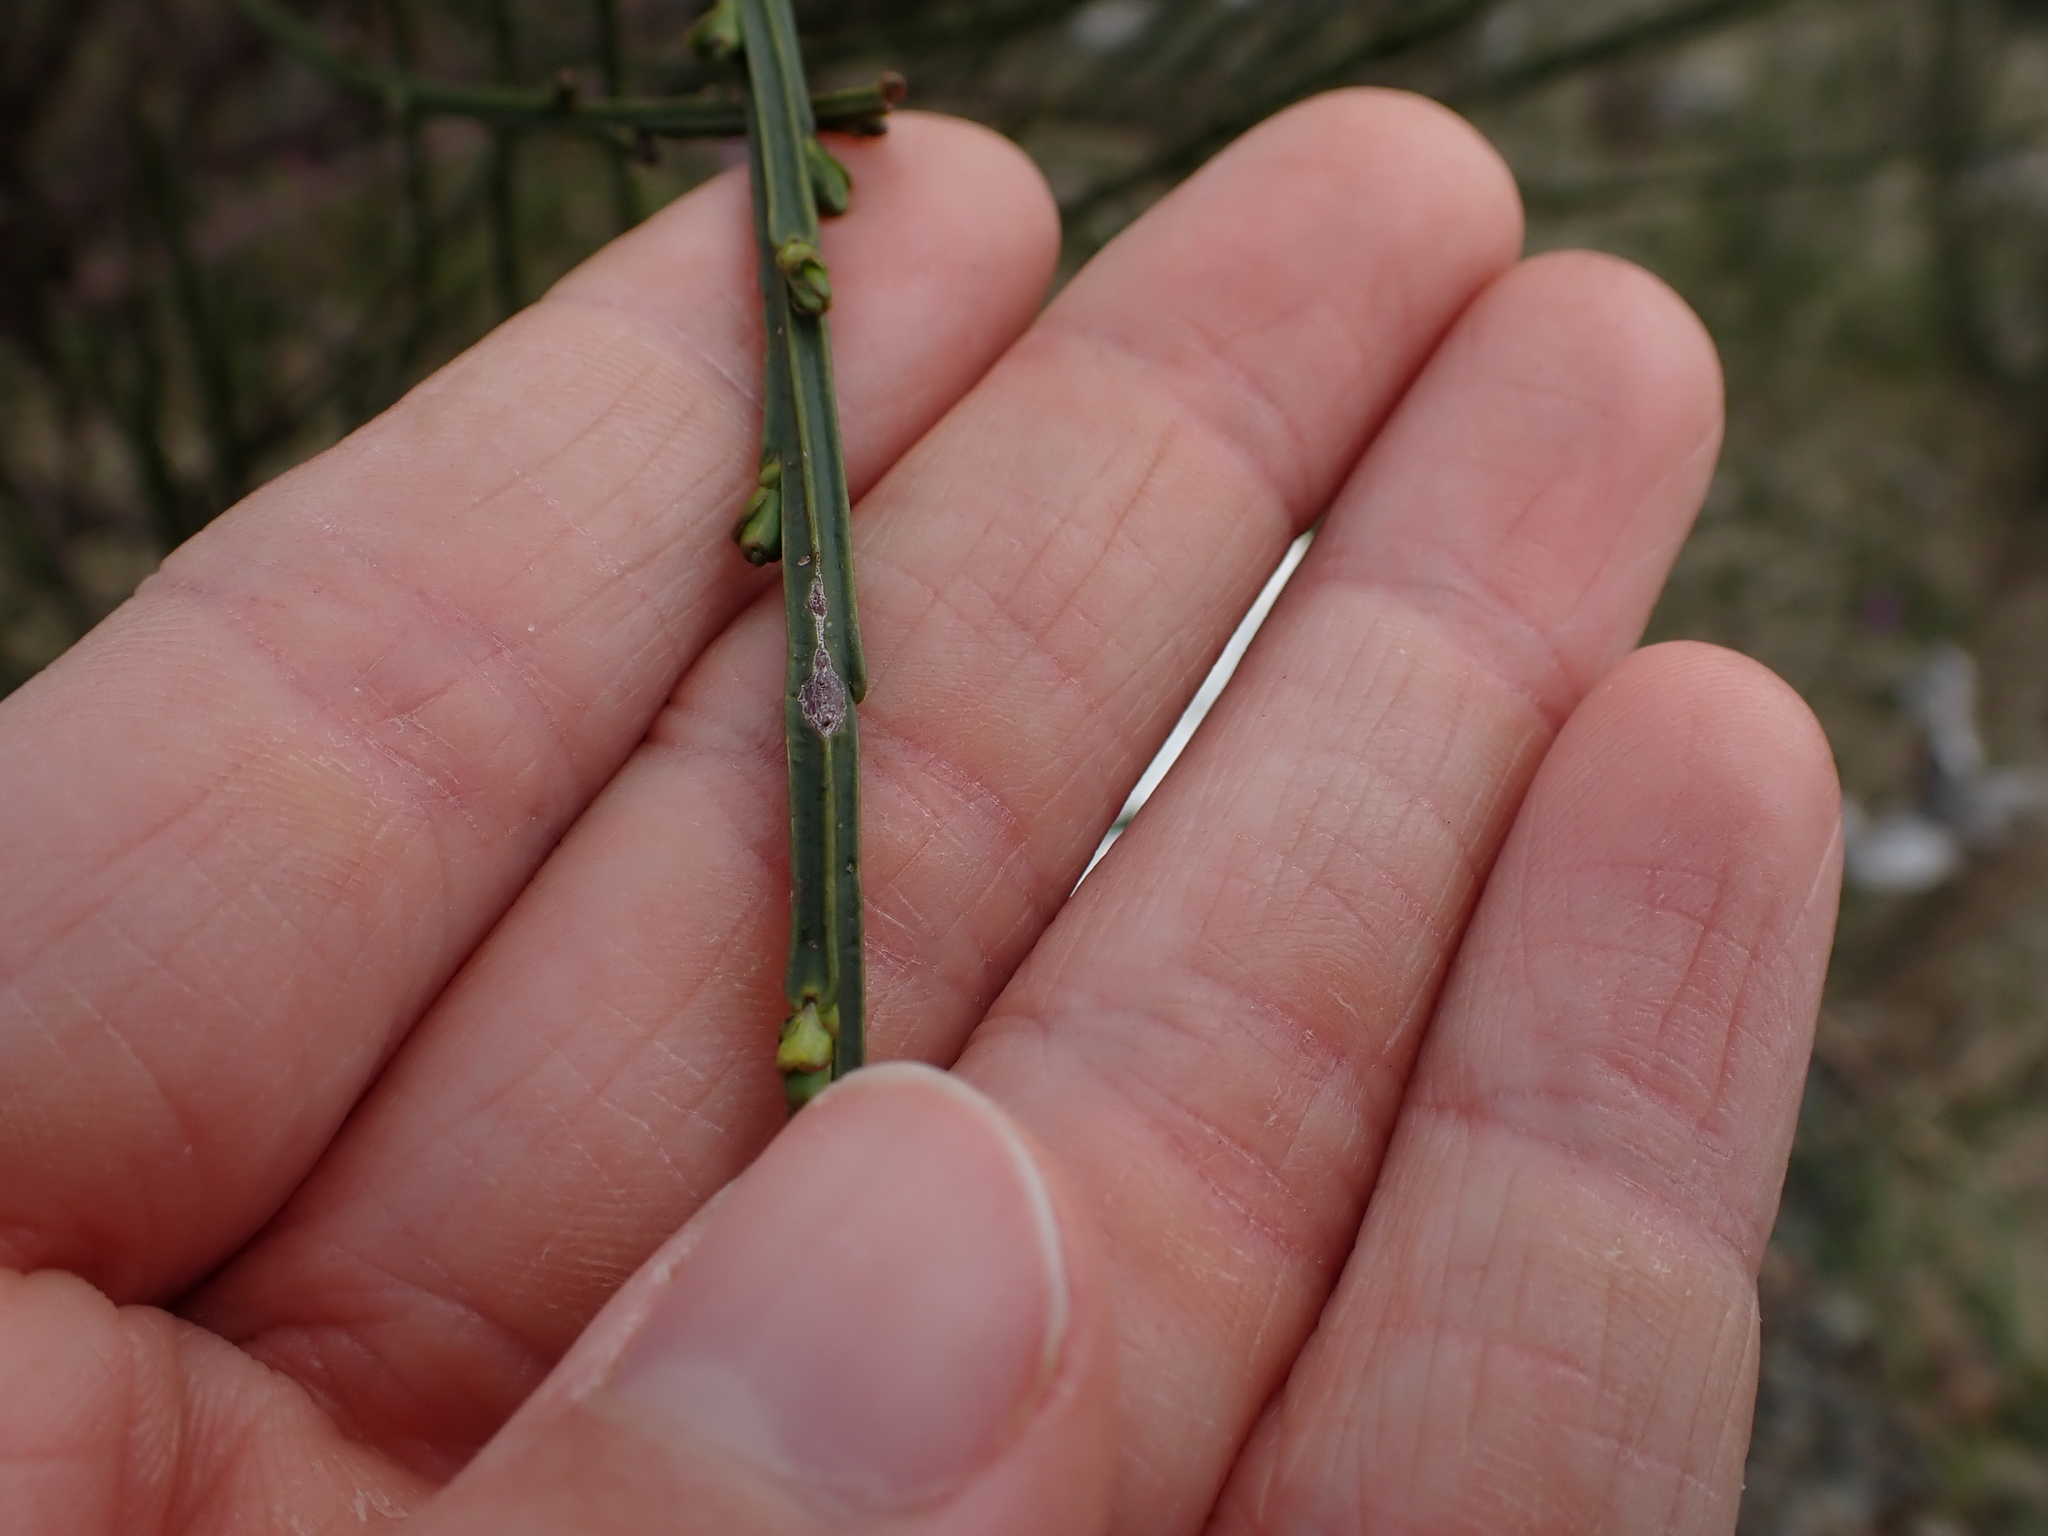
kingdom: Plantae
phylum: Tracheophyta
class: Magnoliopsida
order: Fabales
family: Fabaceae
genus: Cytisus
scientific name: Cytisus scoparius
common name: Scotch broom
